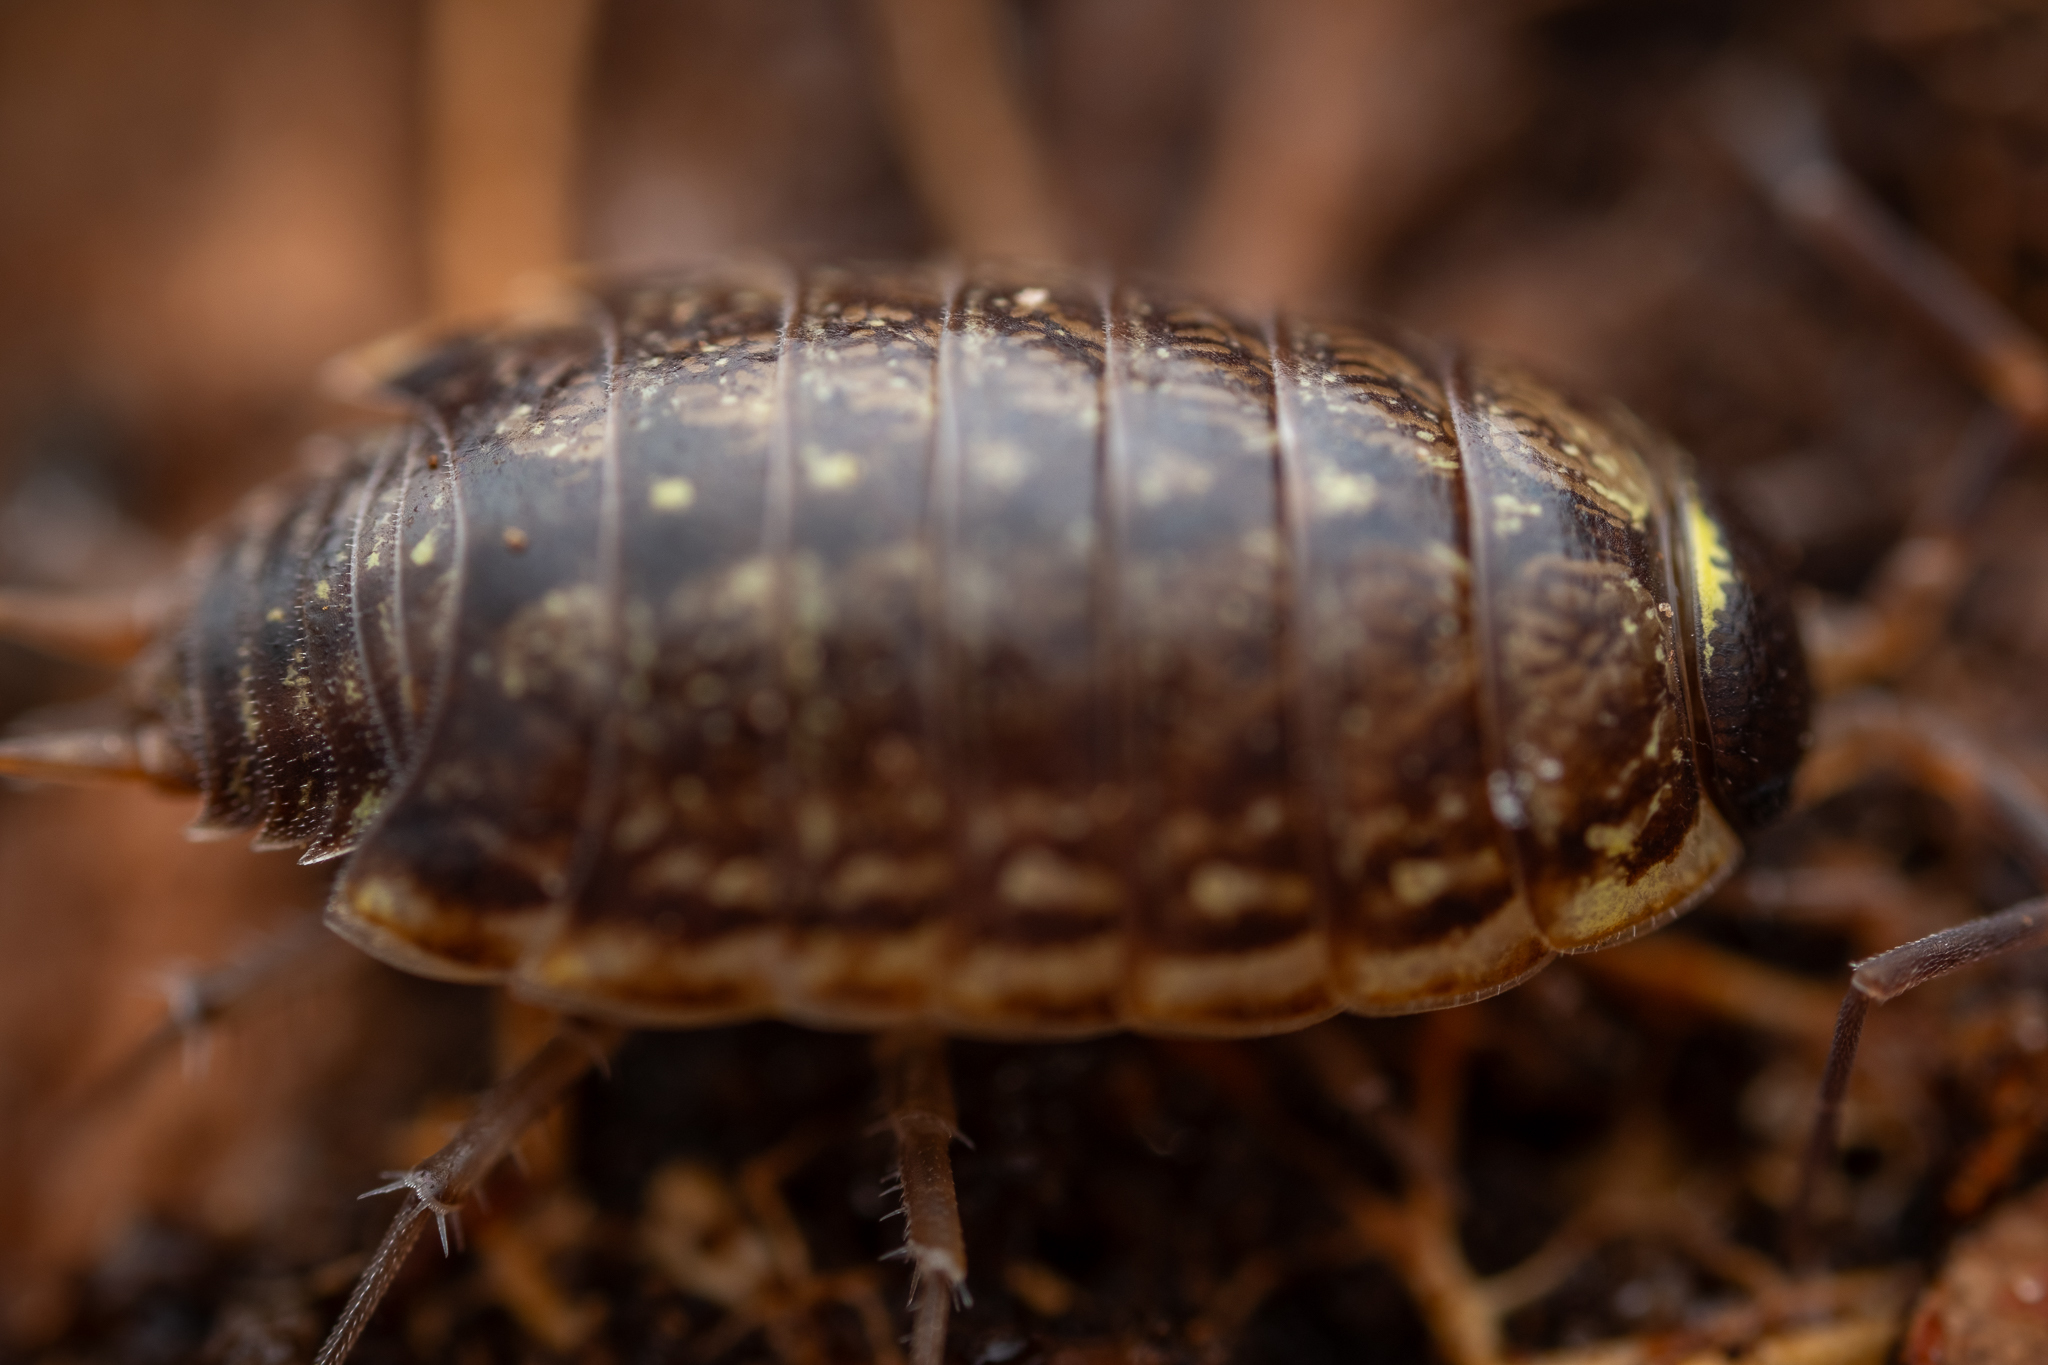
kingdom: Animalia
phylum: Arthropoda
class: Malacostraca
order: Isopoda
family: Philosciidae
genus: Philoscia
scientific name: Philoscia muscorum
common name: Common striped woodlouse
